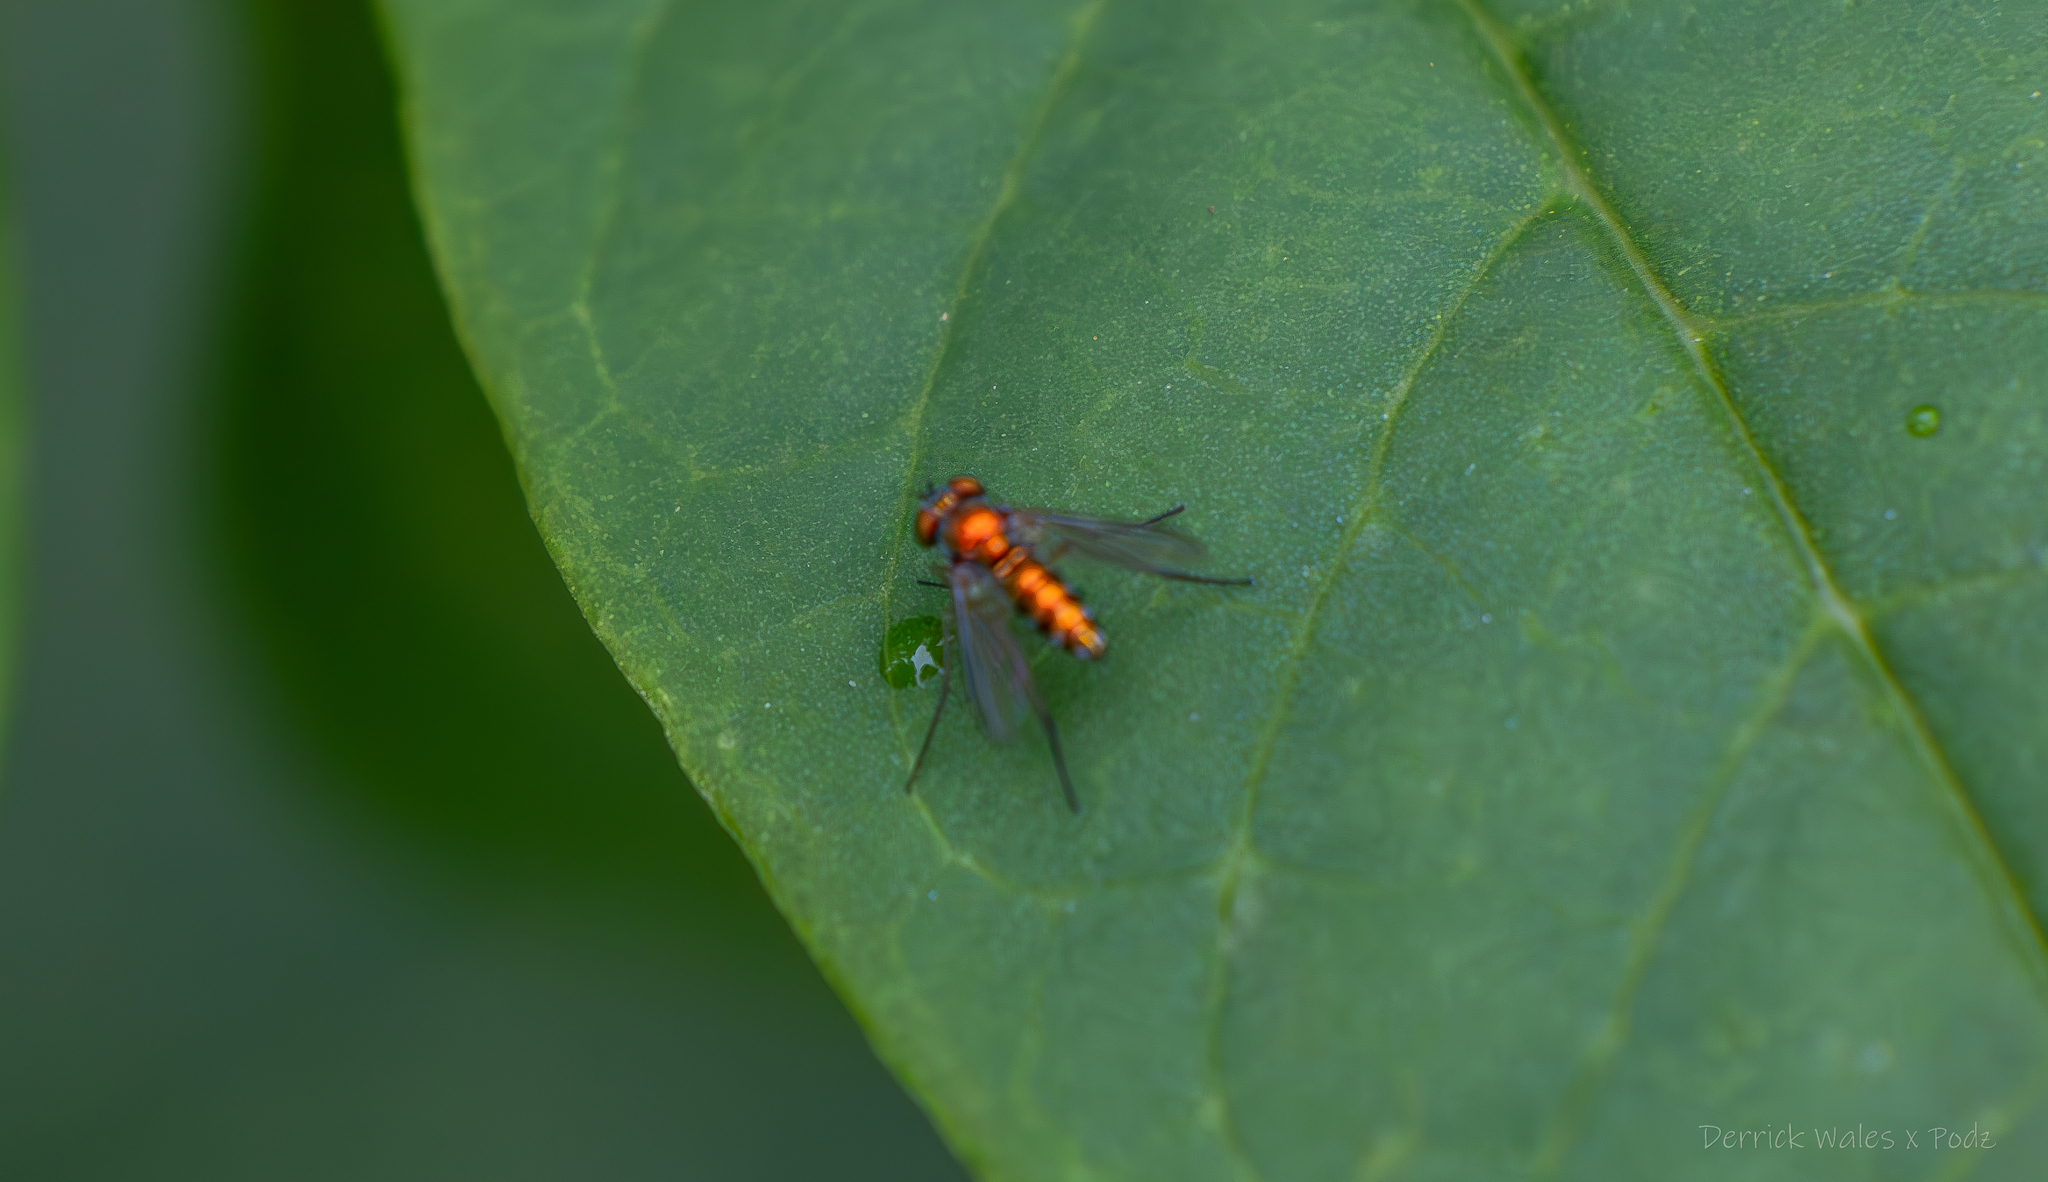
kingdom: Animalia
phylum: Arthropoda
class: Insecta
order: Diptera
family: Dolichopodidae
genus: Condylostylus
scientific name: Condylostylus
